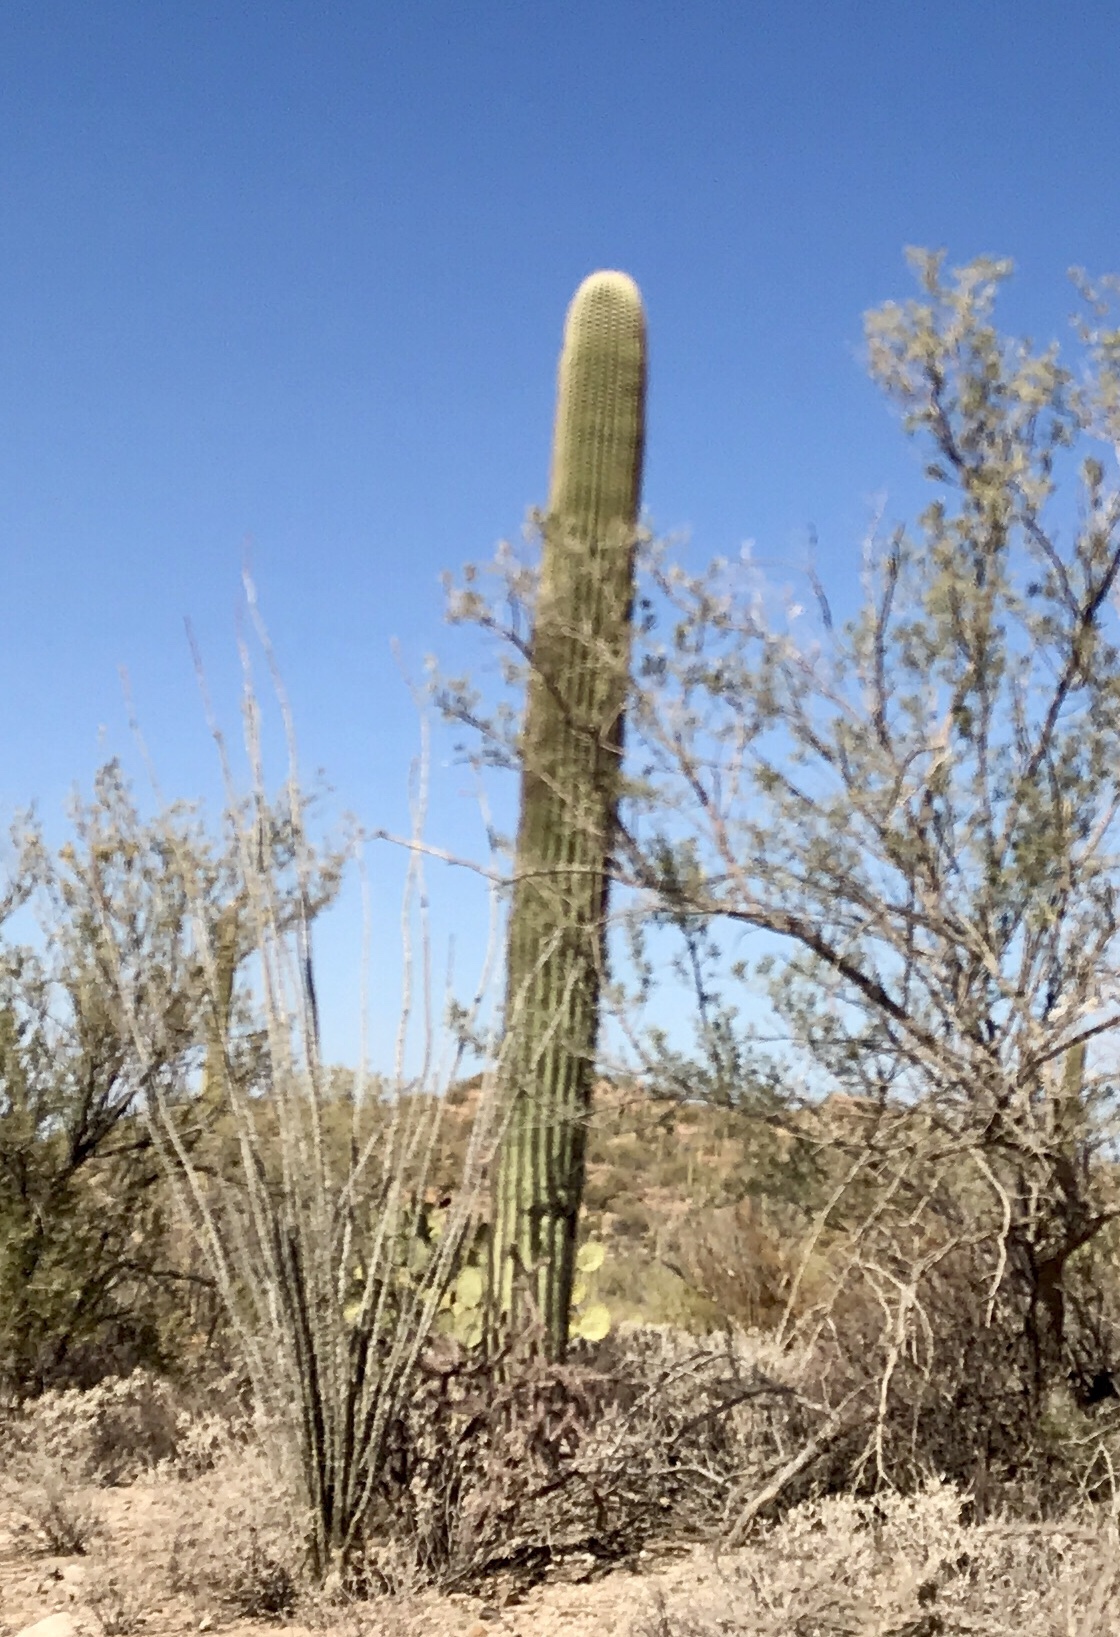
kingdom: Plantae
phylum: Tracheophyta
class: Magnoliopsida
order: Caryophyllales
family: Cactaceae
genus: Carnegiea
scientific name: Carnegiea gigantea
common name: Saguaro
